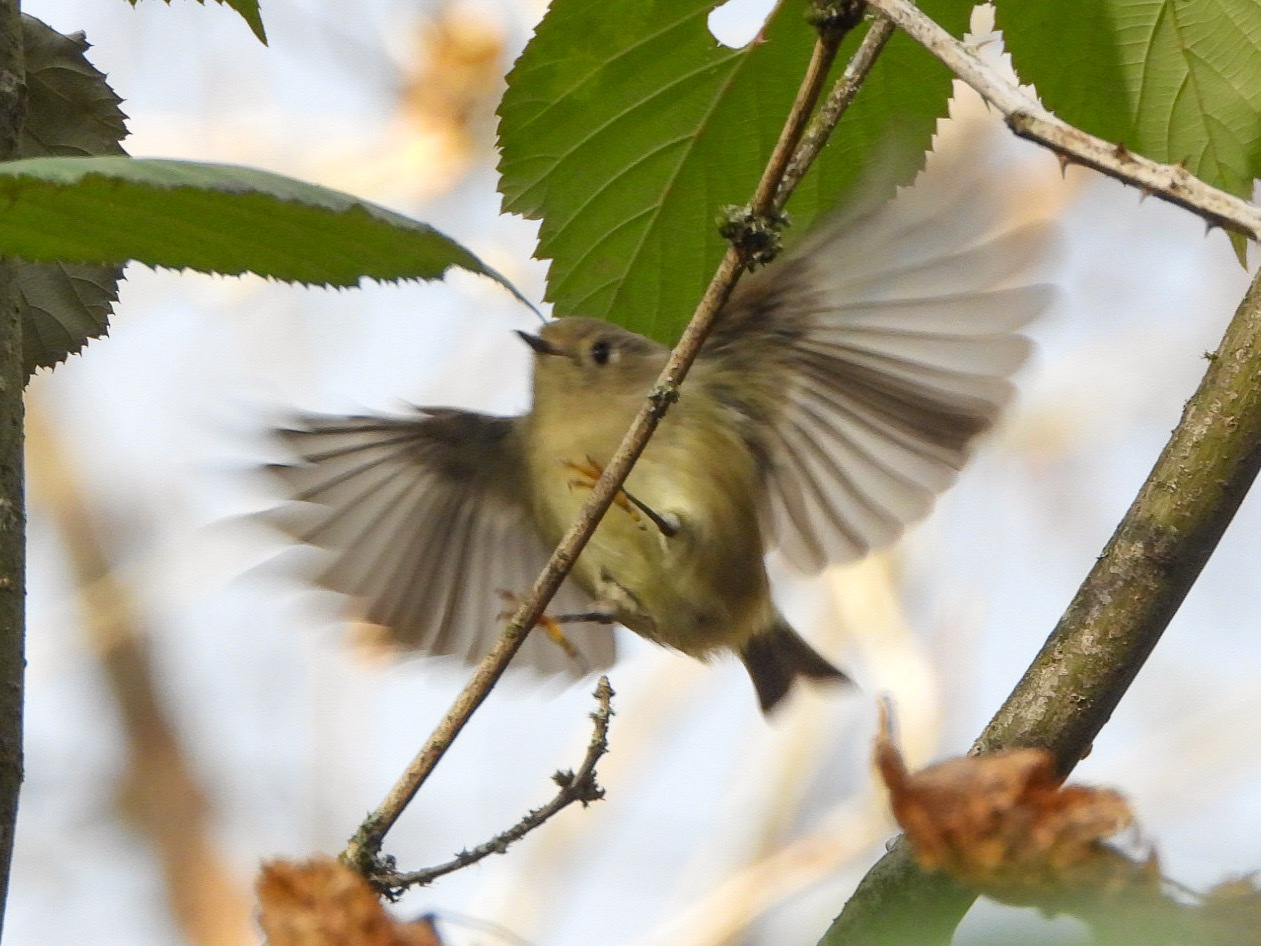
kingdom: Animalia
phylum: Chordata
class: Aves
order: Passeriformes
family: Regulidae
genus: Regulus
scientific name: Regulus calendula
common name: Ruby-crowned kinglet
